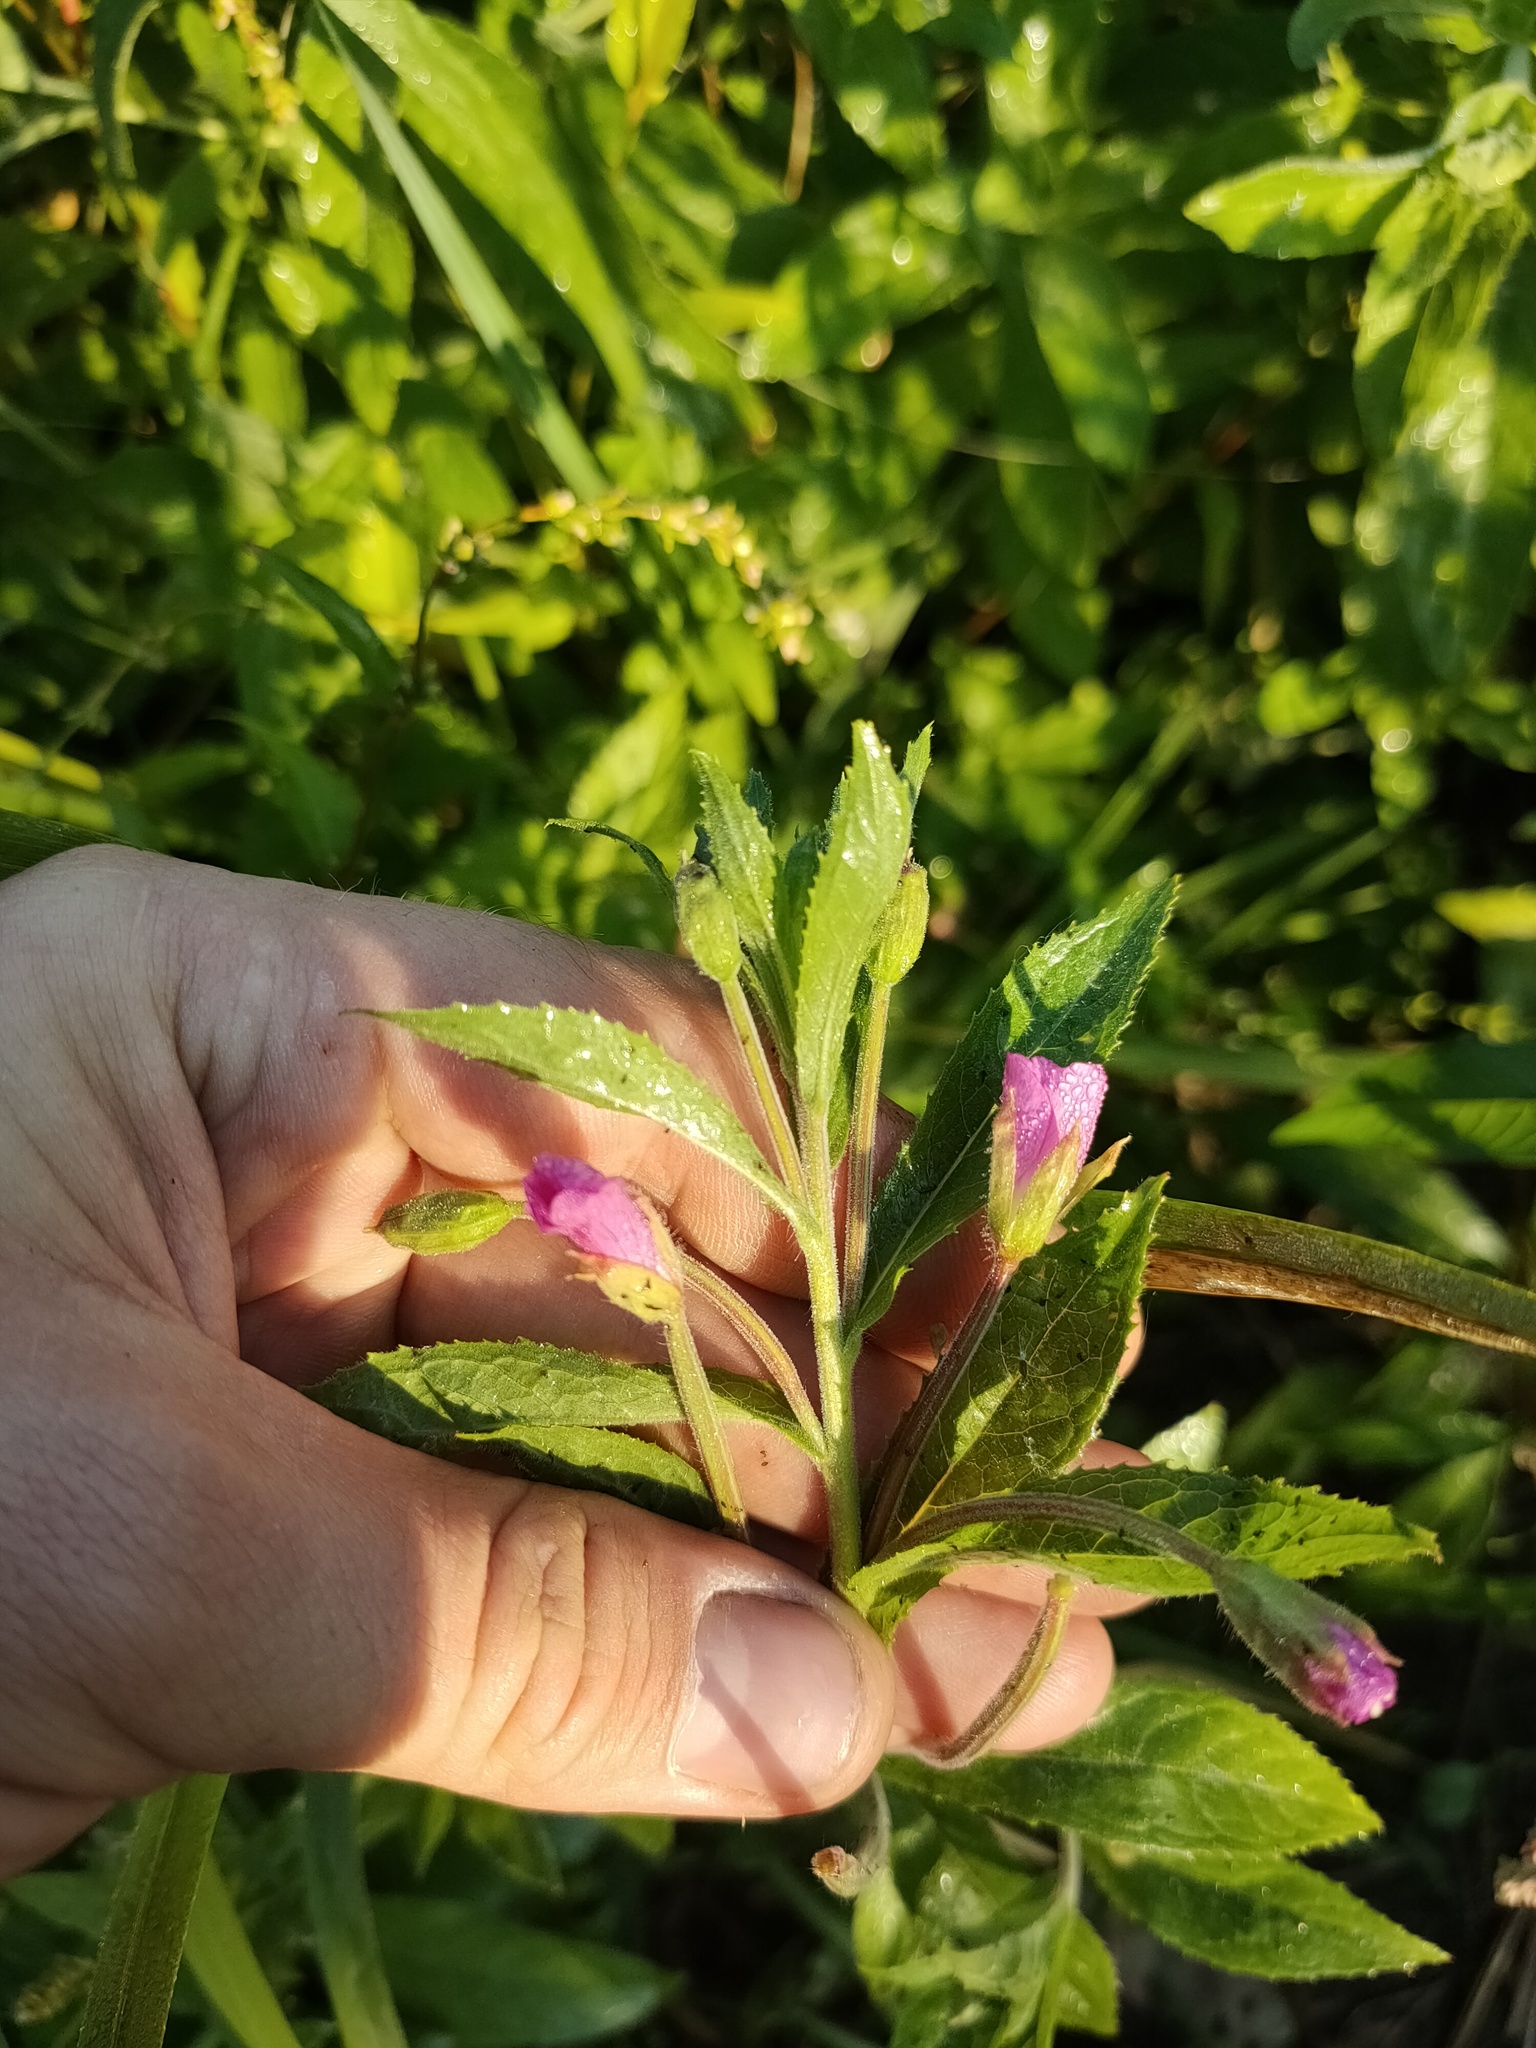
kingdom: Plantae
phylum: Tracheophyta
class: Magnoliopsida
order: Myrtales
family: Onagraceae
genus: Epilobium
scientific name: Epilobium hirsutum
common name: Great willowherb
